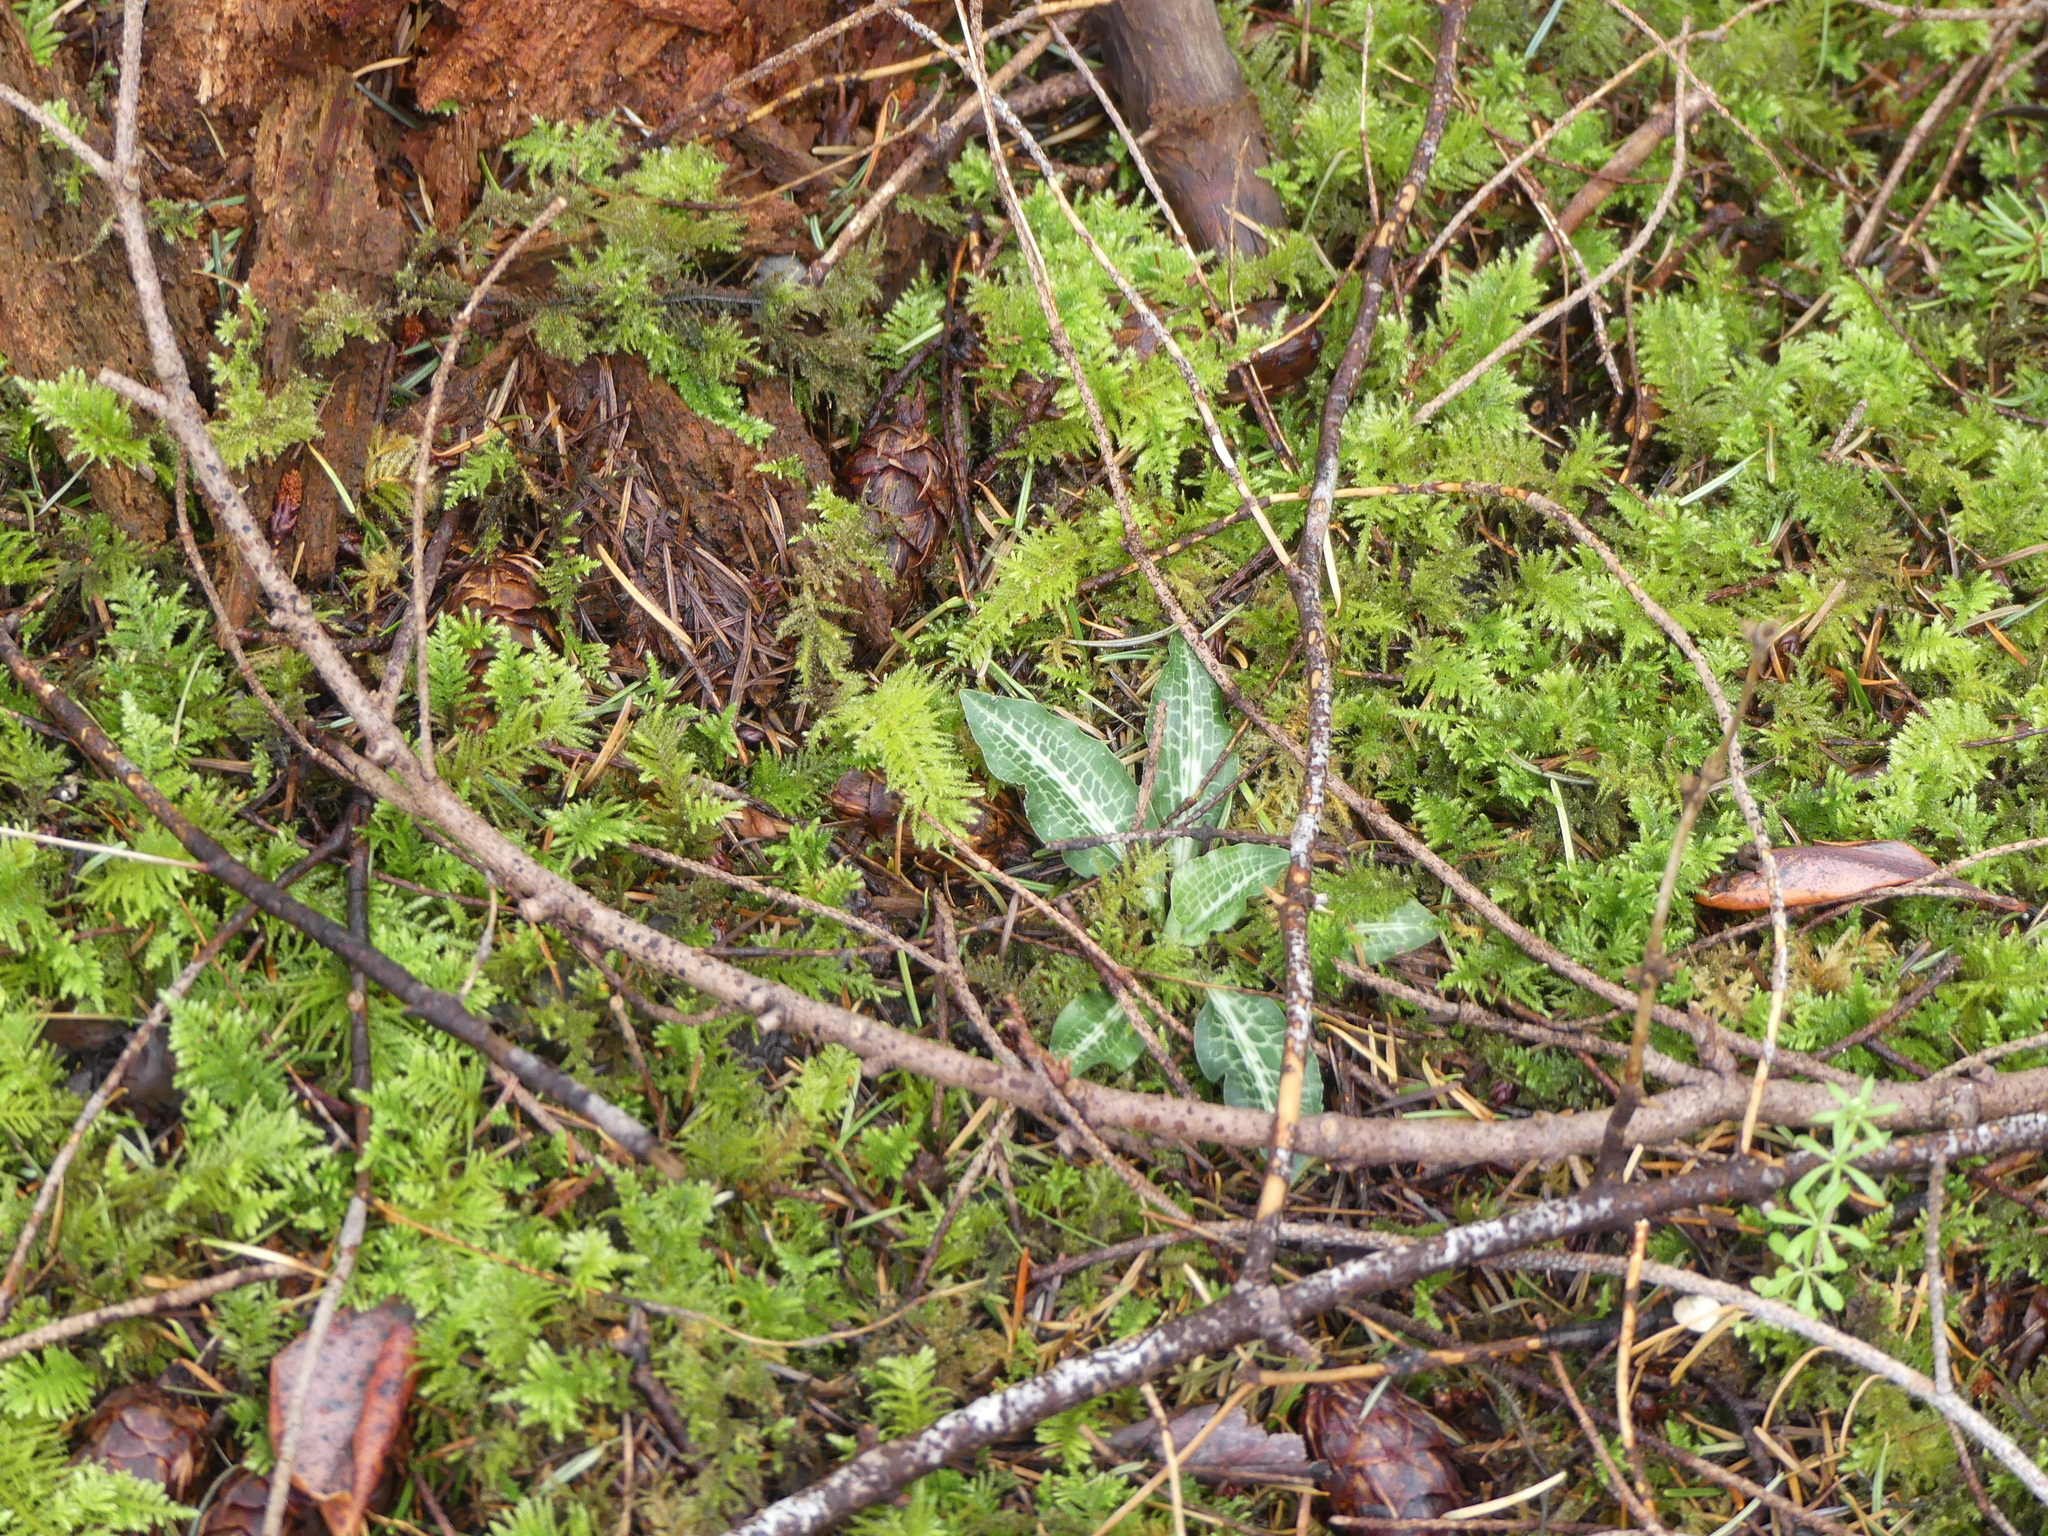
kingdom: Plantae
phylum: Tracheophyta
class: Liliopsida
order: Asparagales
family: Orchidaceae
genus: Goodyera
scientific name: Goodyera oblongifolia
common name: Giant rattlesnake-plantain
